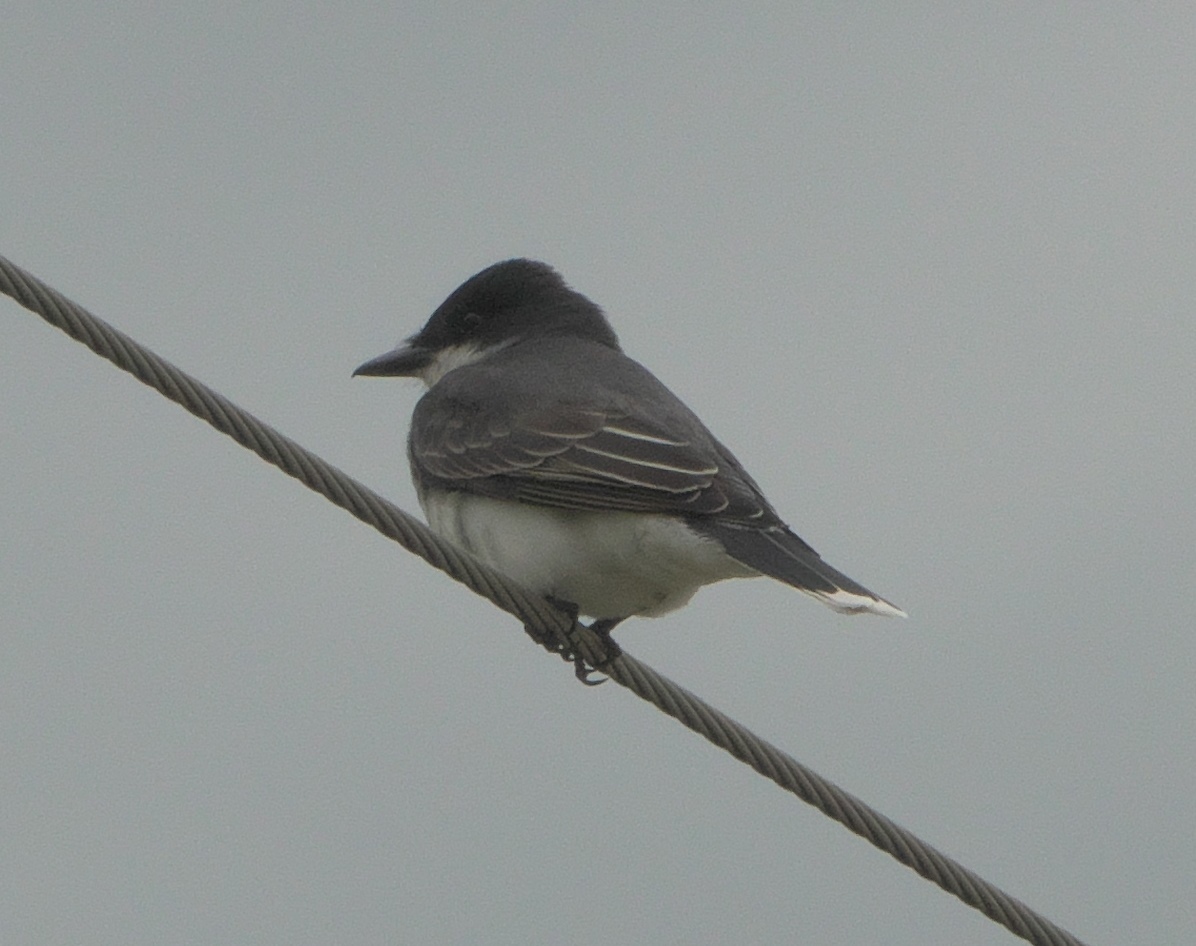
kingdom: Animalia
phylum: Chordata
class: Aves
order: Passeriformes
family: Tyrannidae
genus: Tyrannus
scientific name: Tyrannus tyrannus
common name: Eastern kingbird
